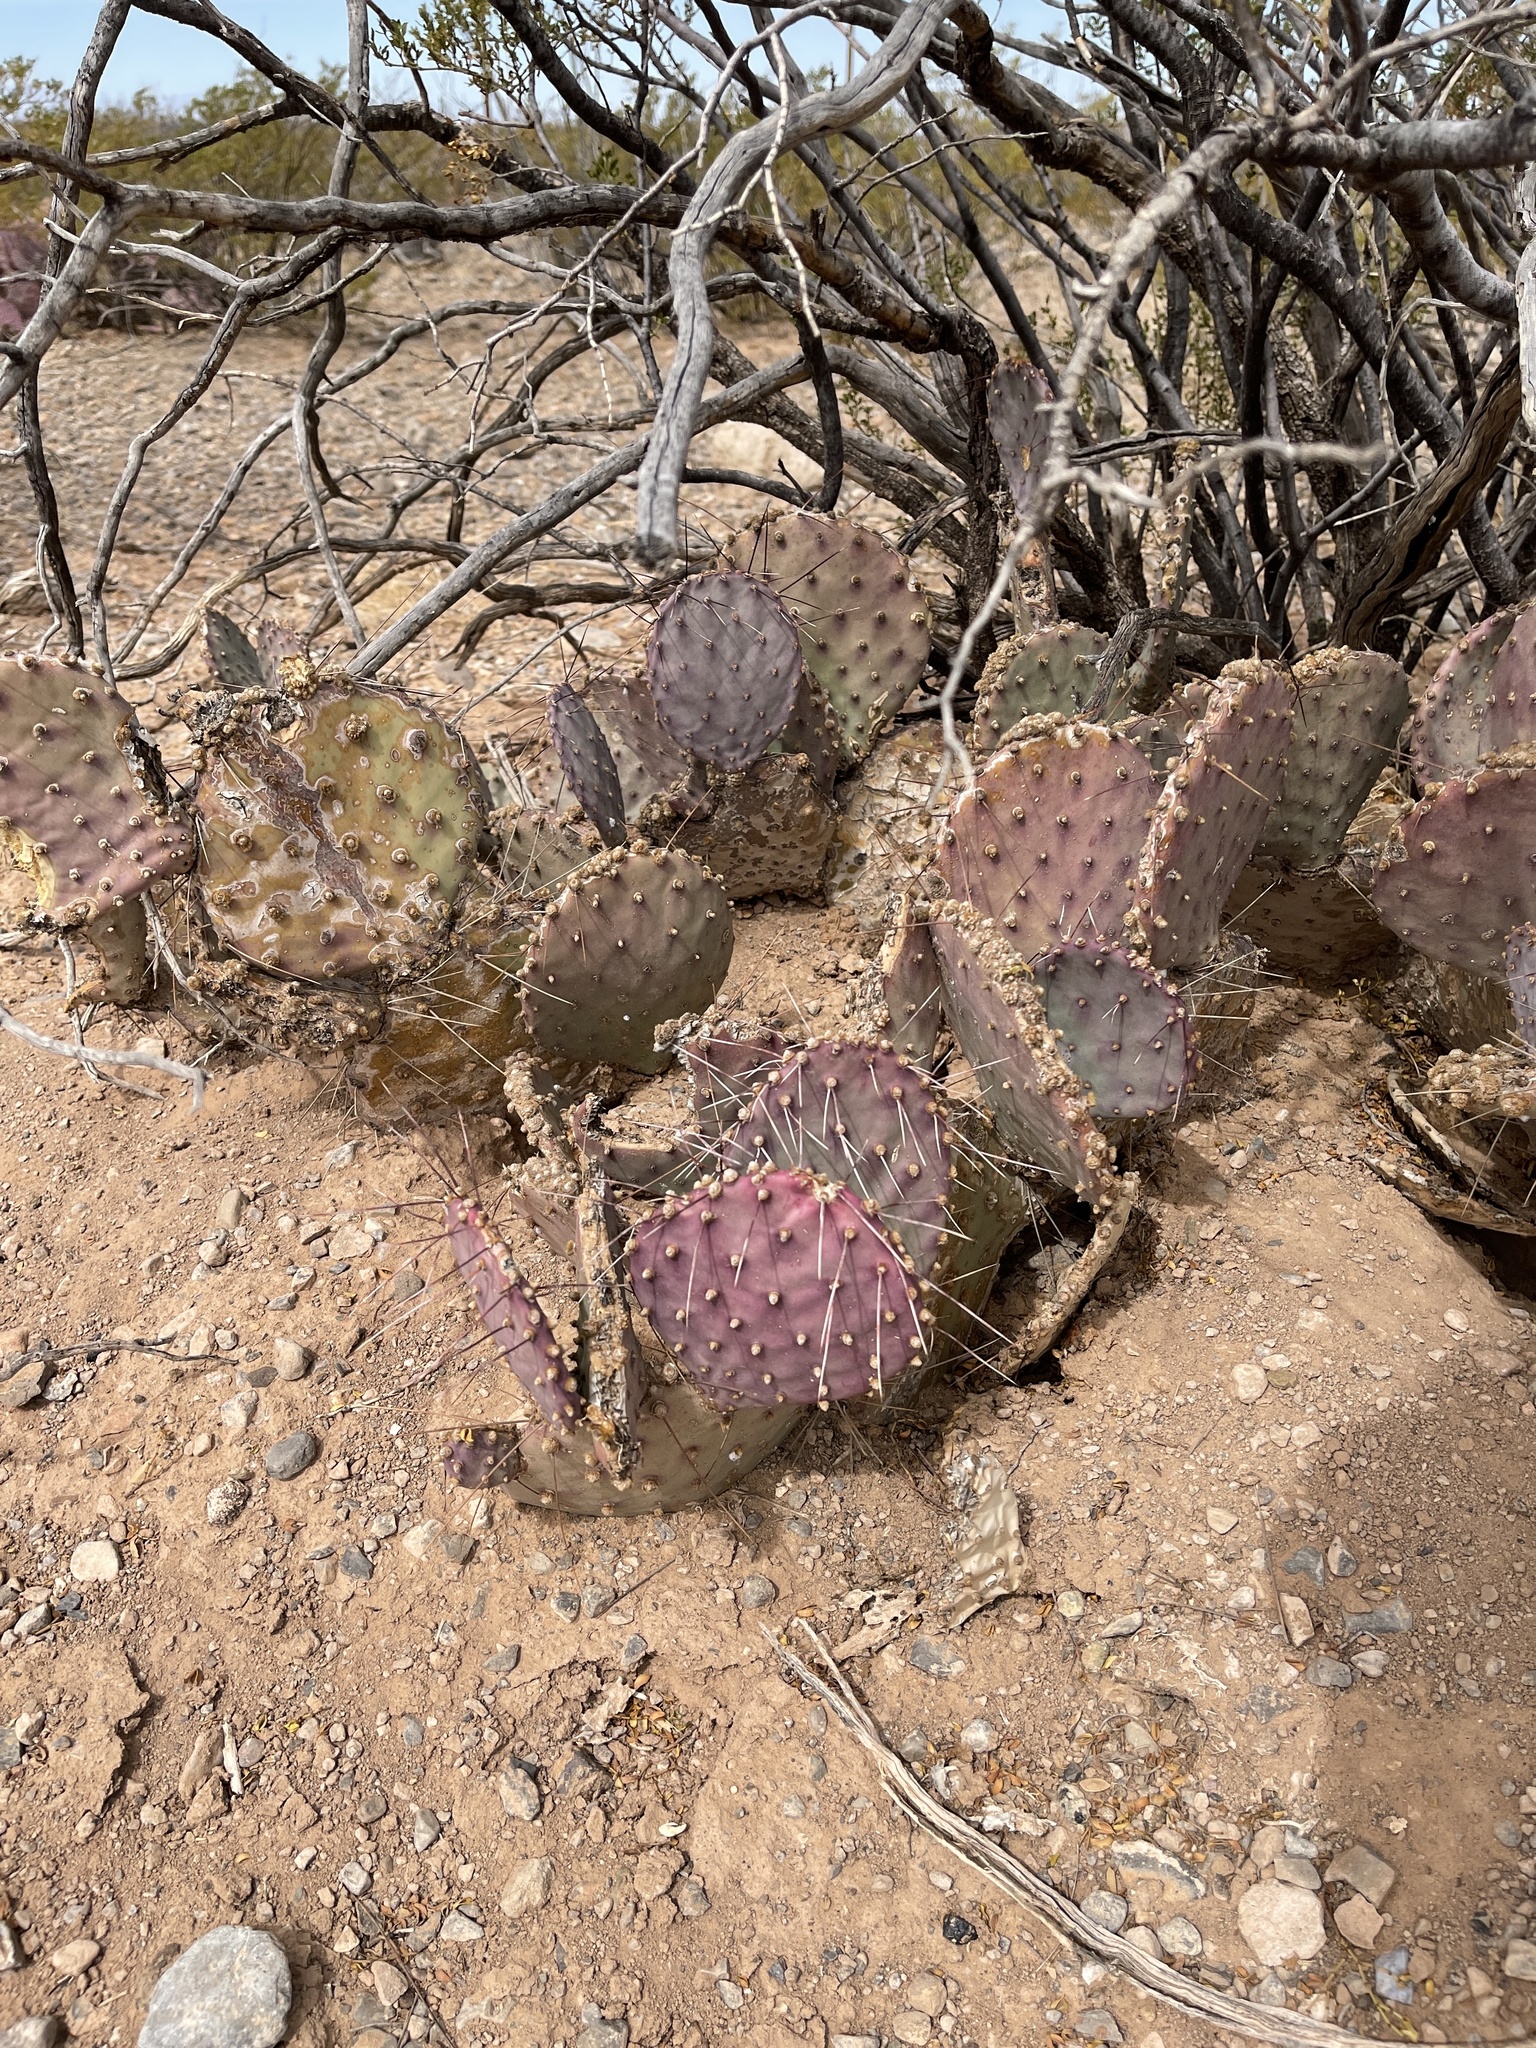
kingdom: Plantae
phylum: Tracheophyta
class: Magnoliopsida
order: Caryophyllales
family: Cactaceae
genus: Opuntia
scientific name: Opuntia macrocentra
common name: Purple prickly-pear
